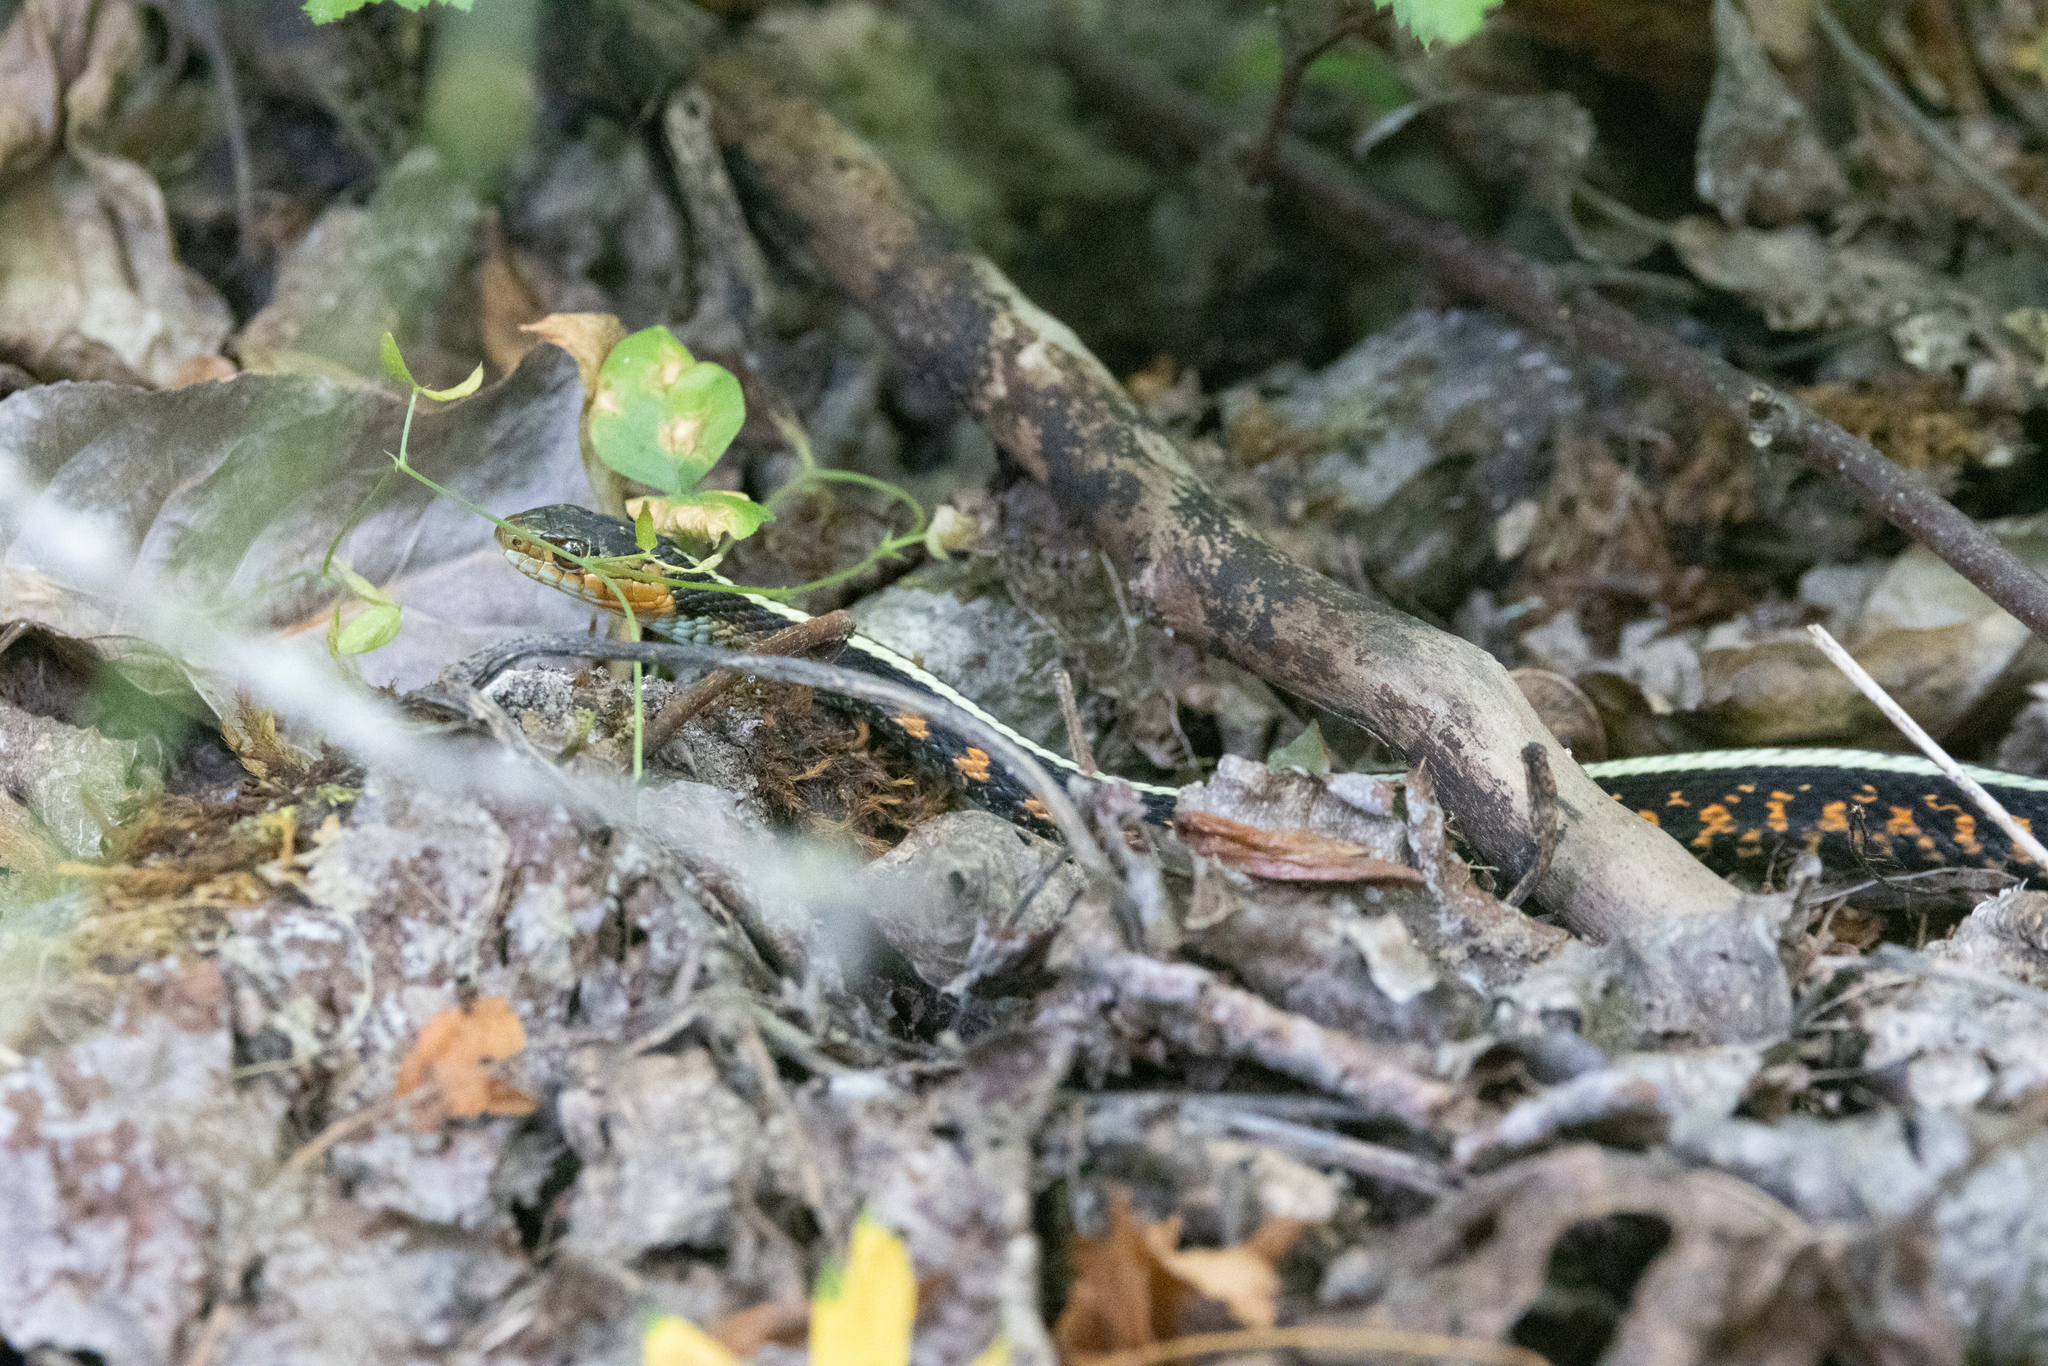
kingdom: Animalia
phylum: Chordata
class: Squamata
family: Colubridae
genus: Thamnophis
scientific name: Thamnophis sirtalis
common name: Common garter snake
